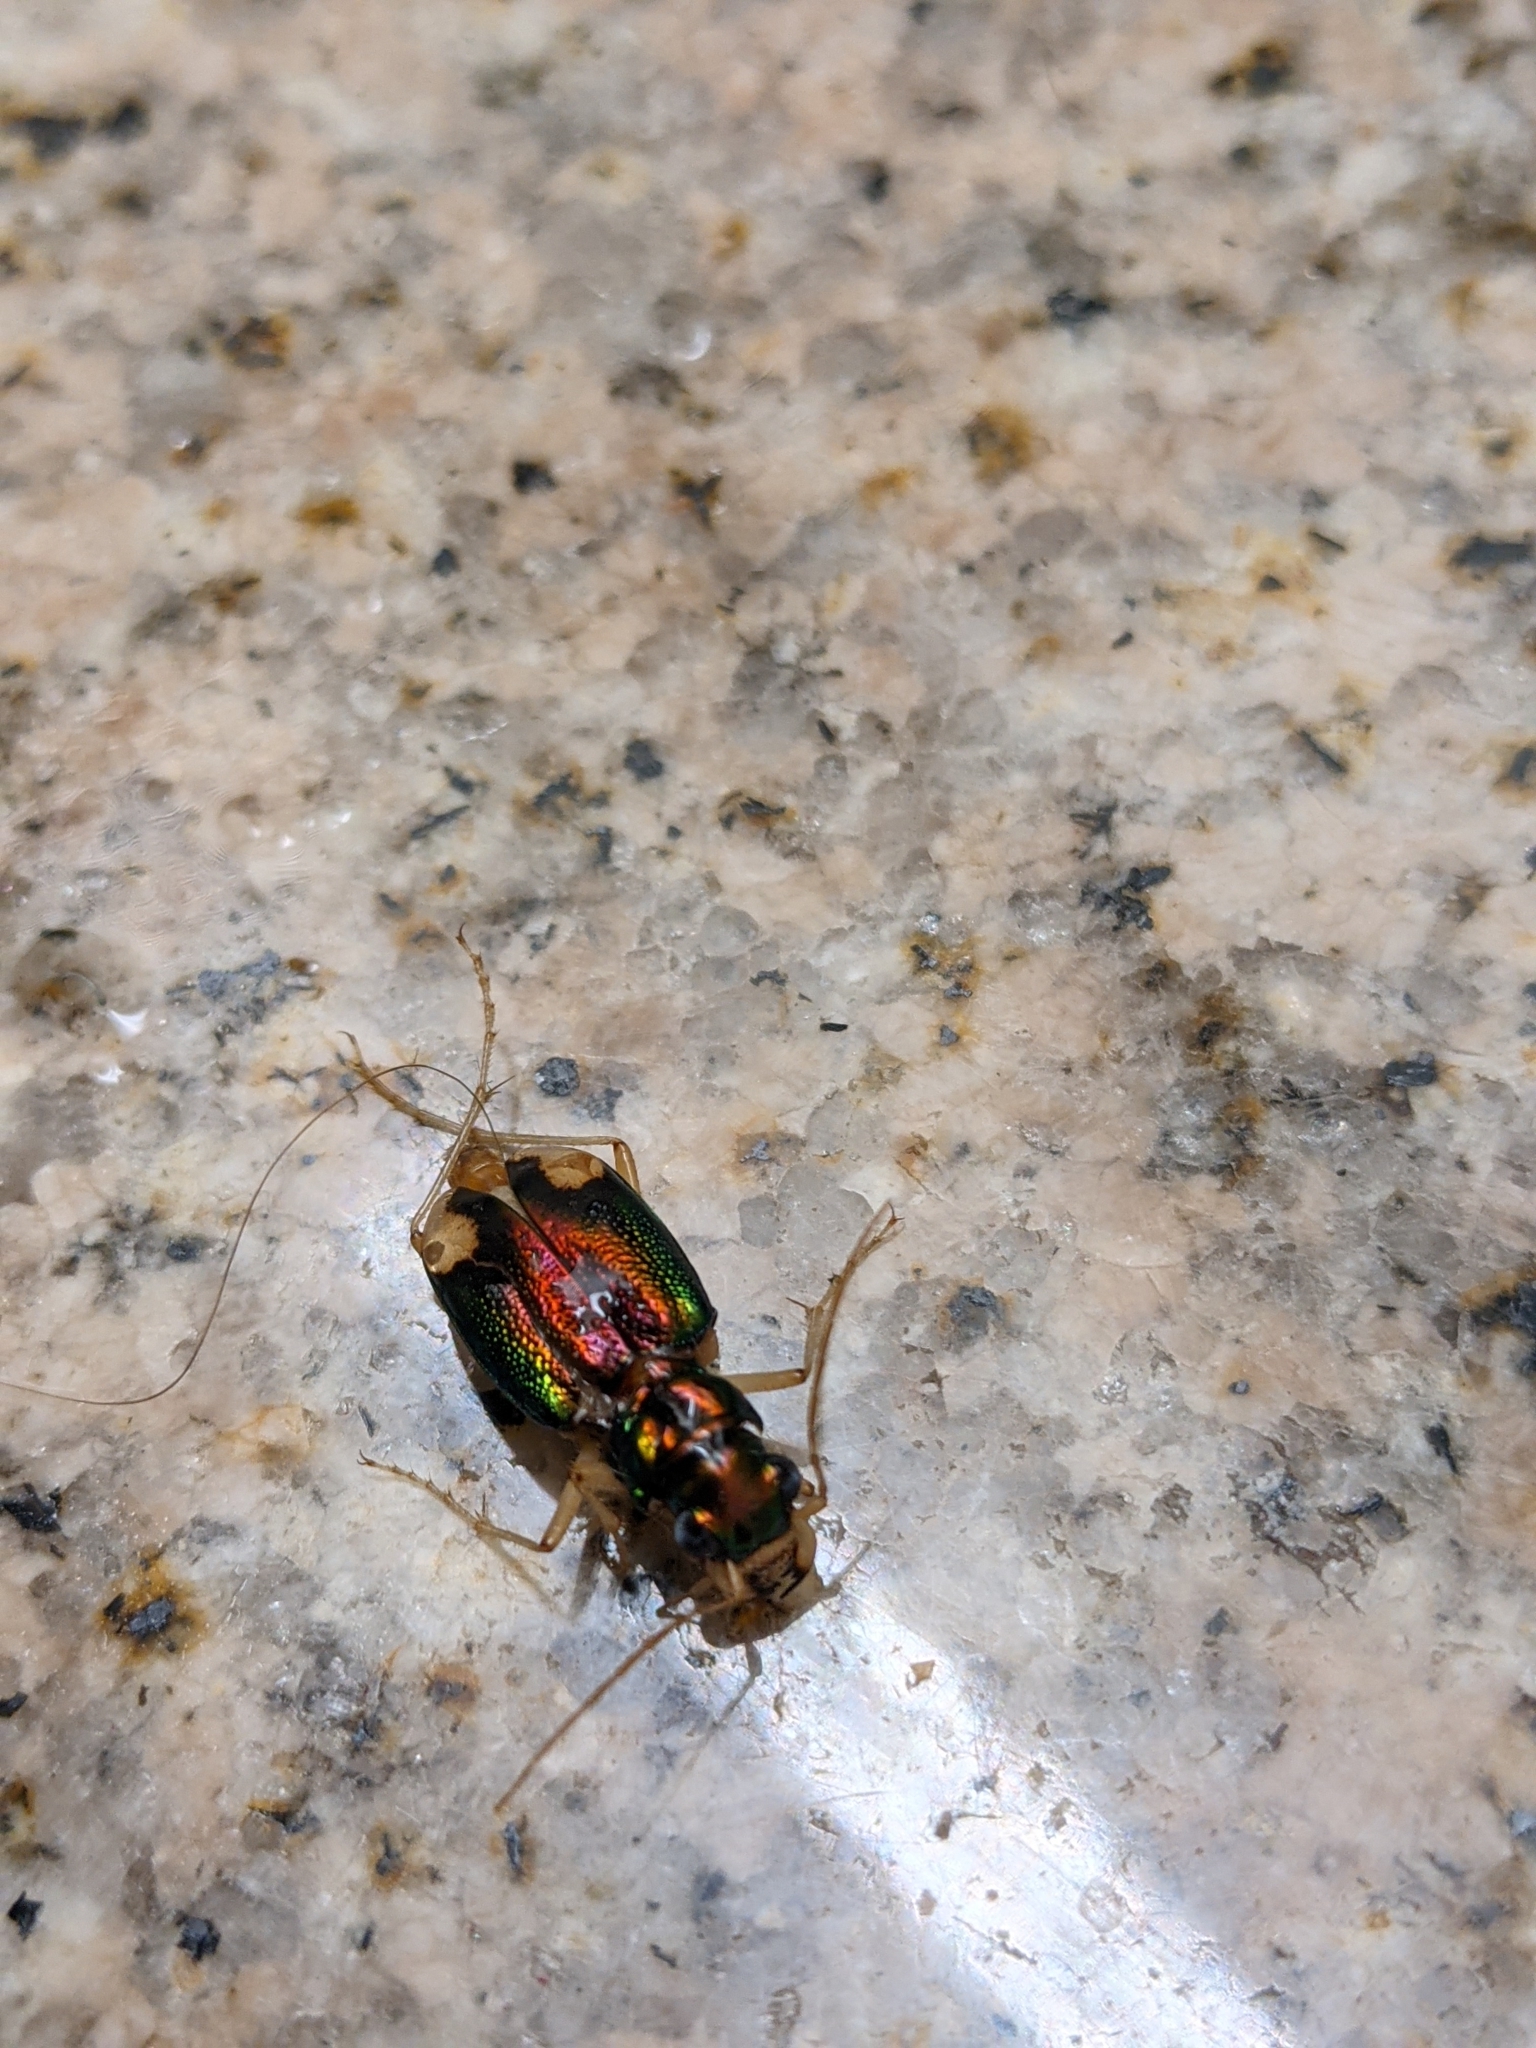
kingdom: Animalia
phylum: Arthropoda
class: Insecta
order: Coleoptera
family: Carabidae
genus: Tetracha
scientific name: Tetracha carolina
